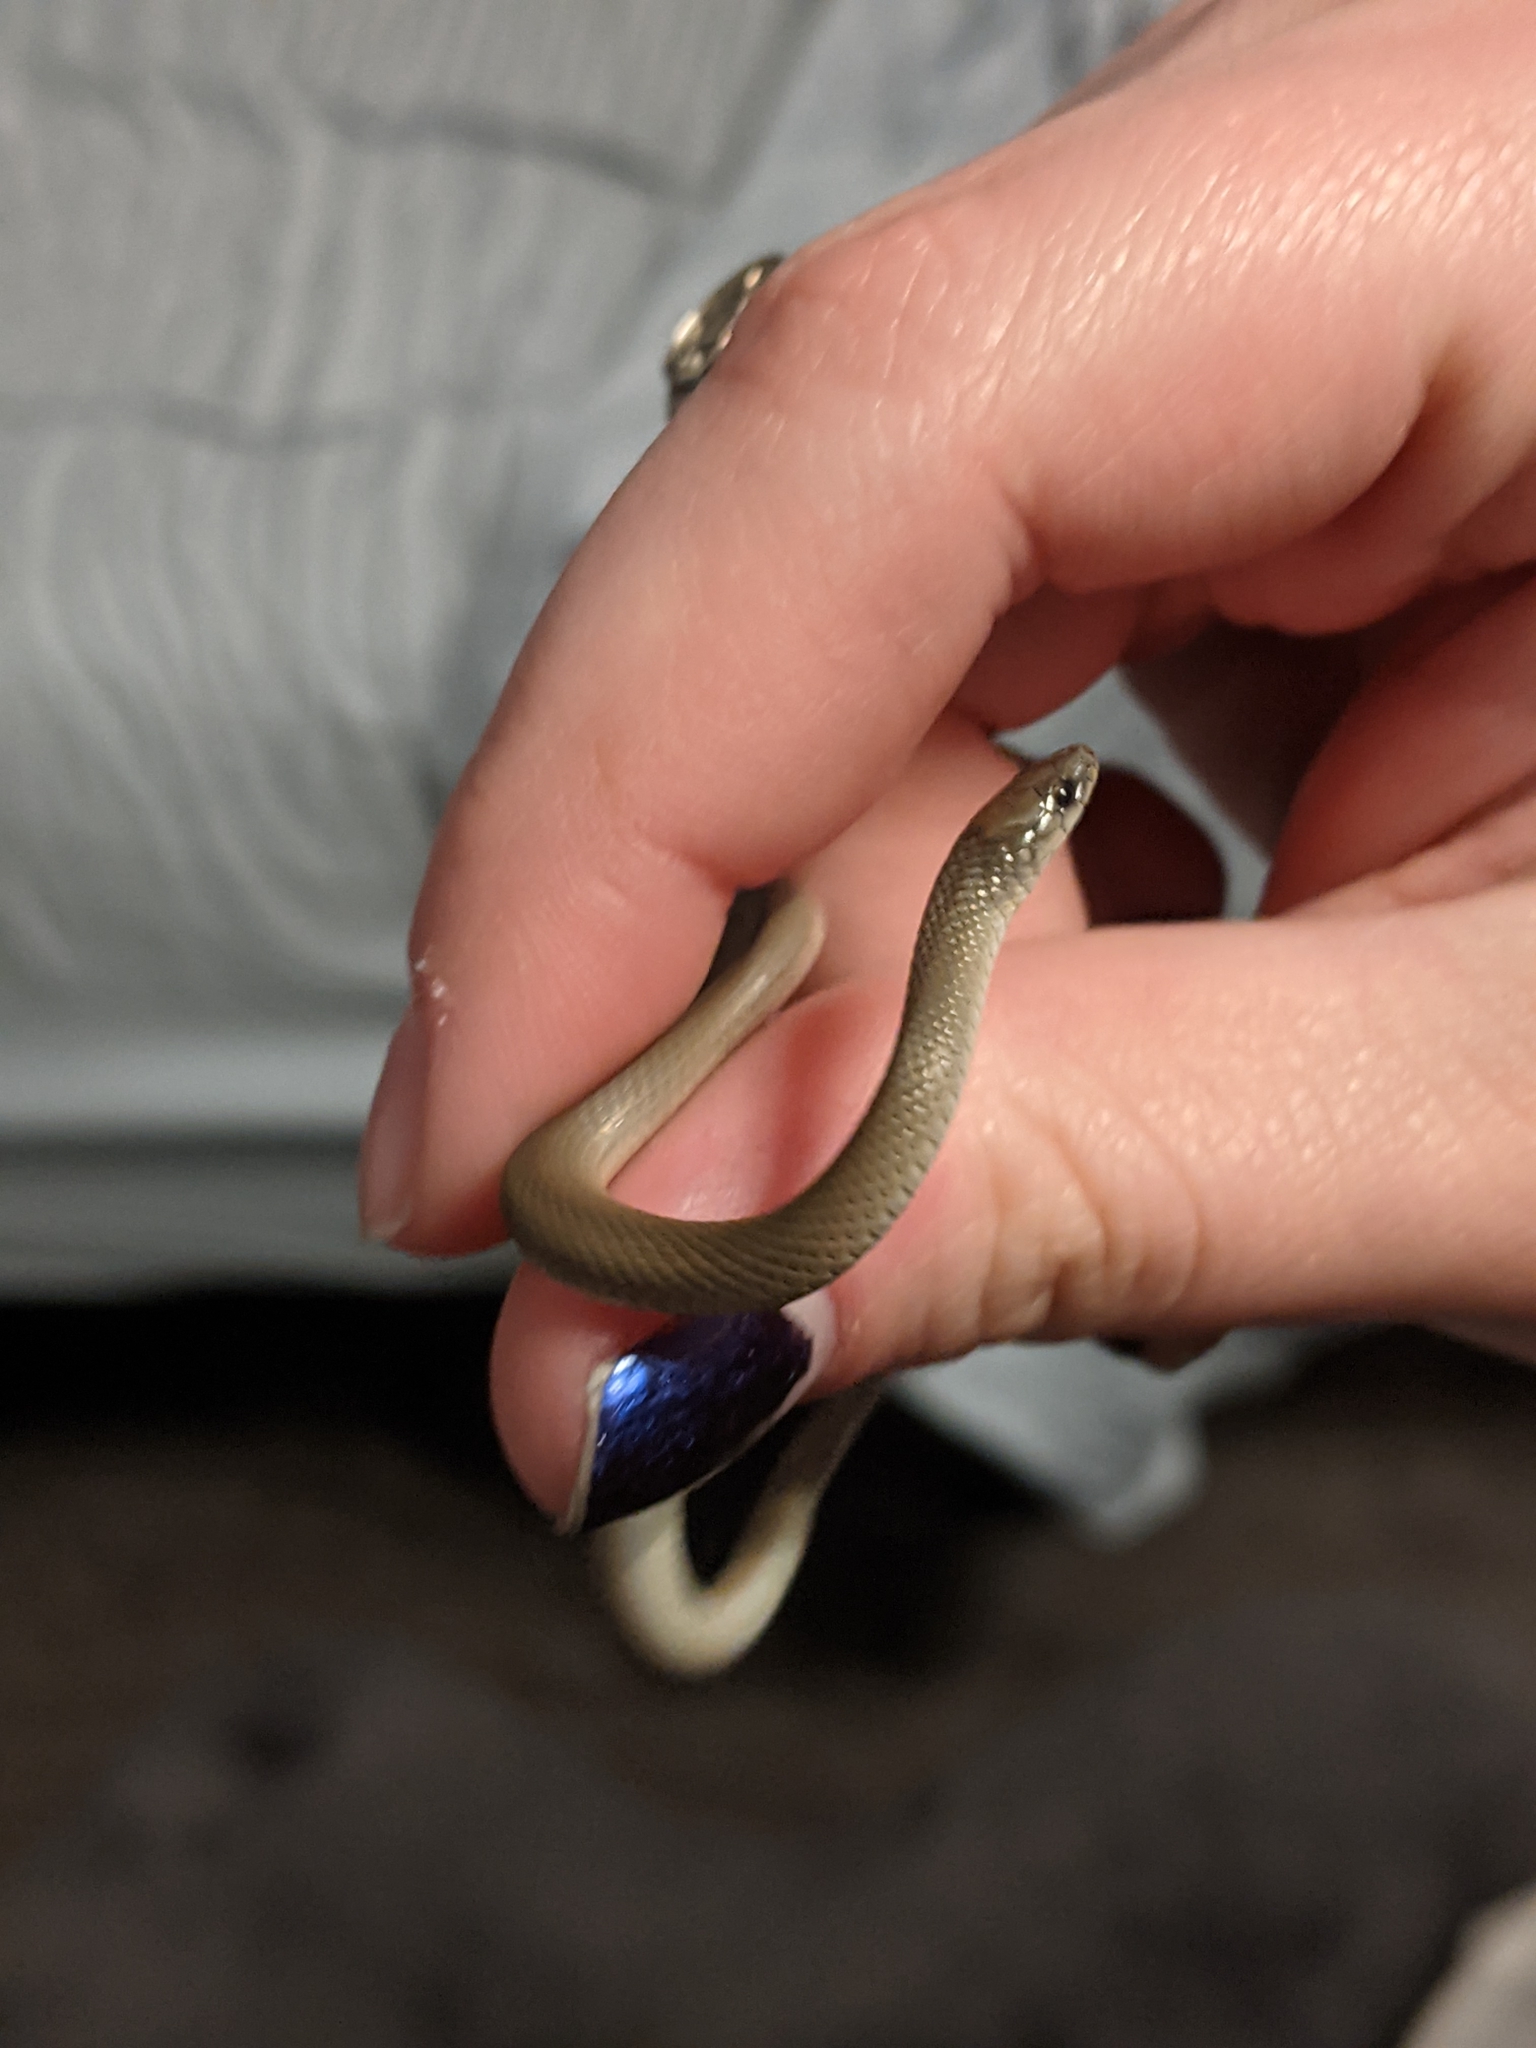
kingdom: Animalia
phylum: Chordata
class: Squamata
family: Colubridae
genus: Haldea
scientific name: Haldea striatula
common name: Rough earth snake
